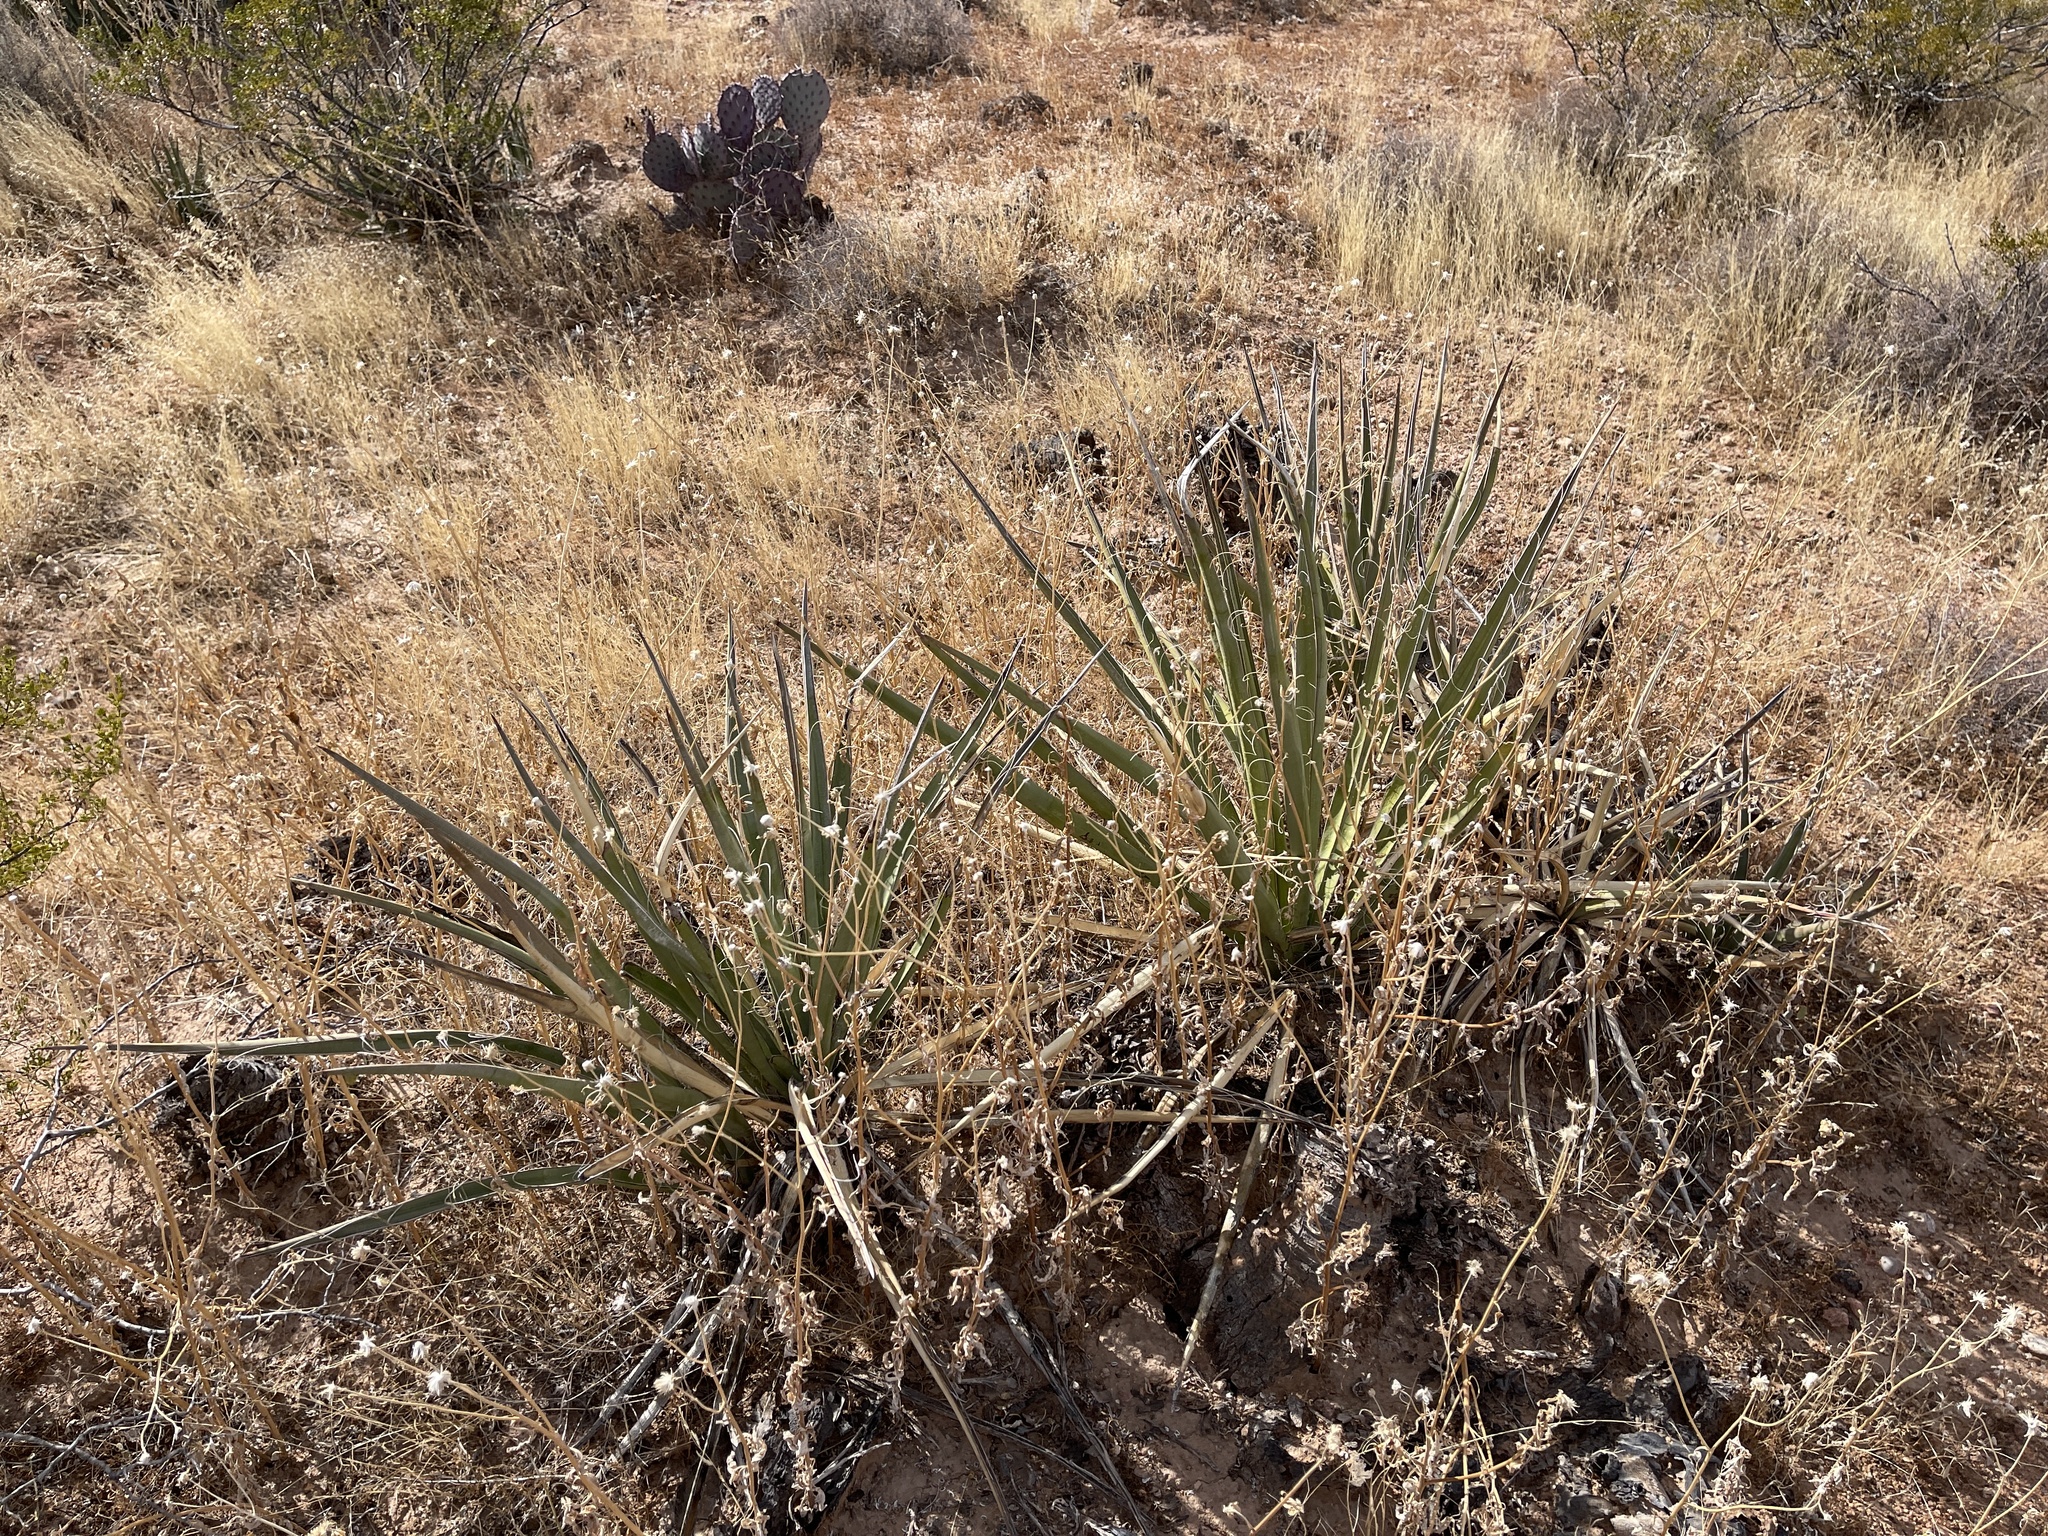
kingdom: Plantae
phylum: Tracheophyta
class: Liliopsida
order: Asparagales
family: Asparagaceae
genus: Yucca
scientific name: Yucca baccata
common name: Banana yucca
